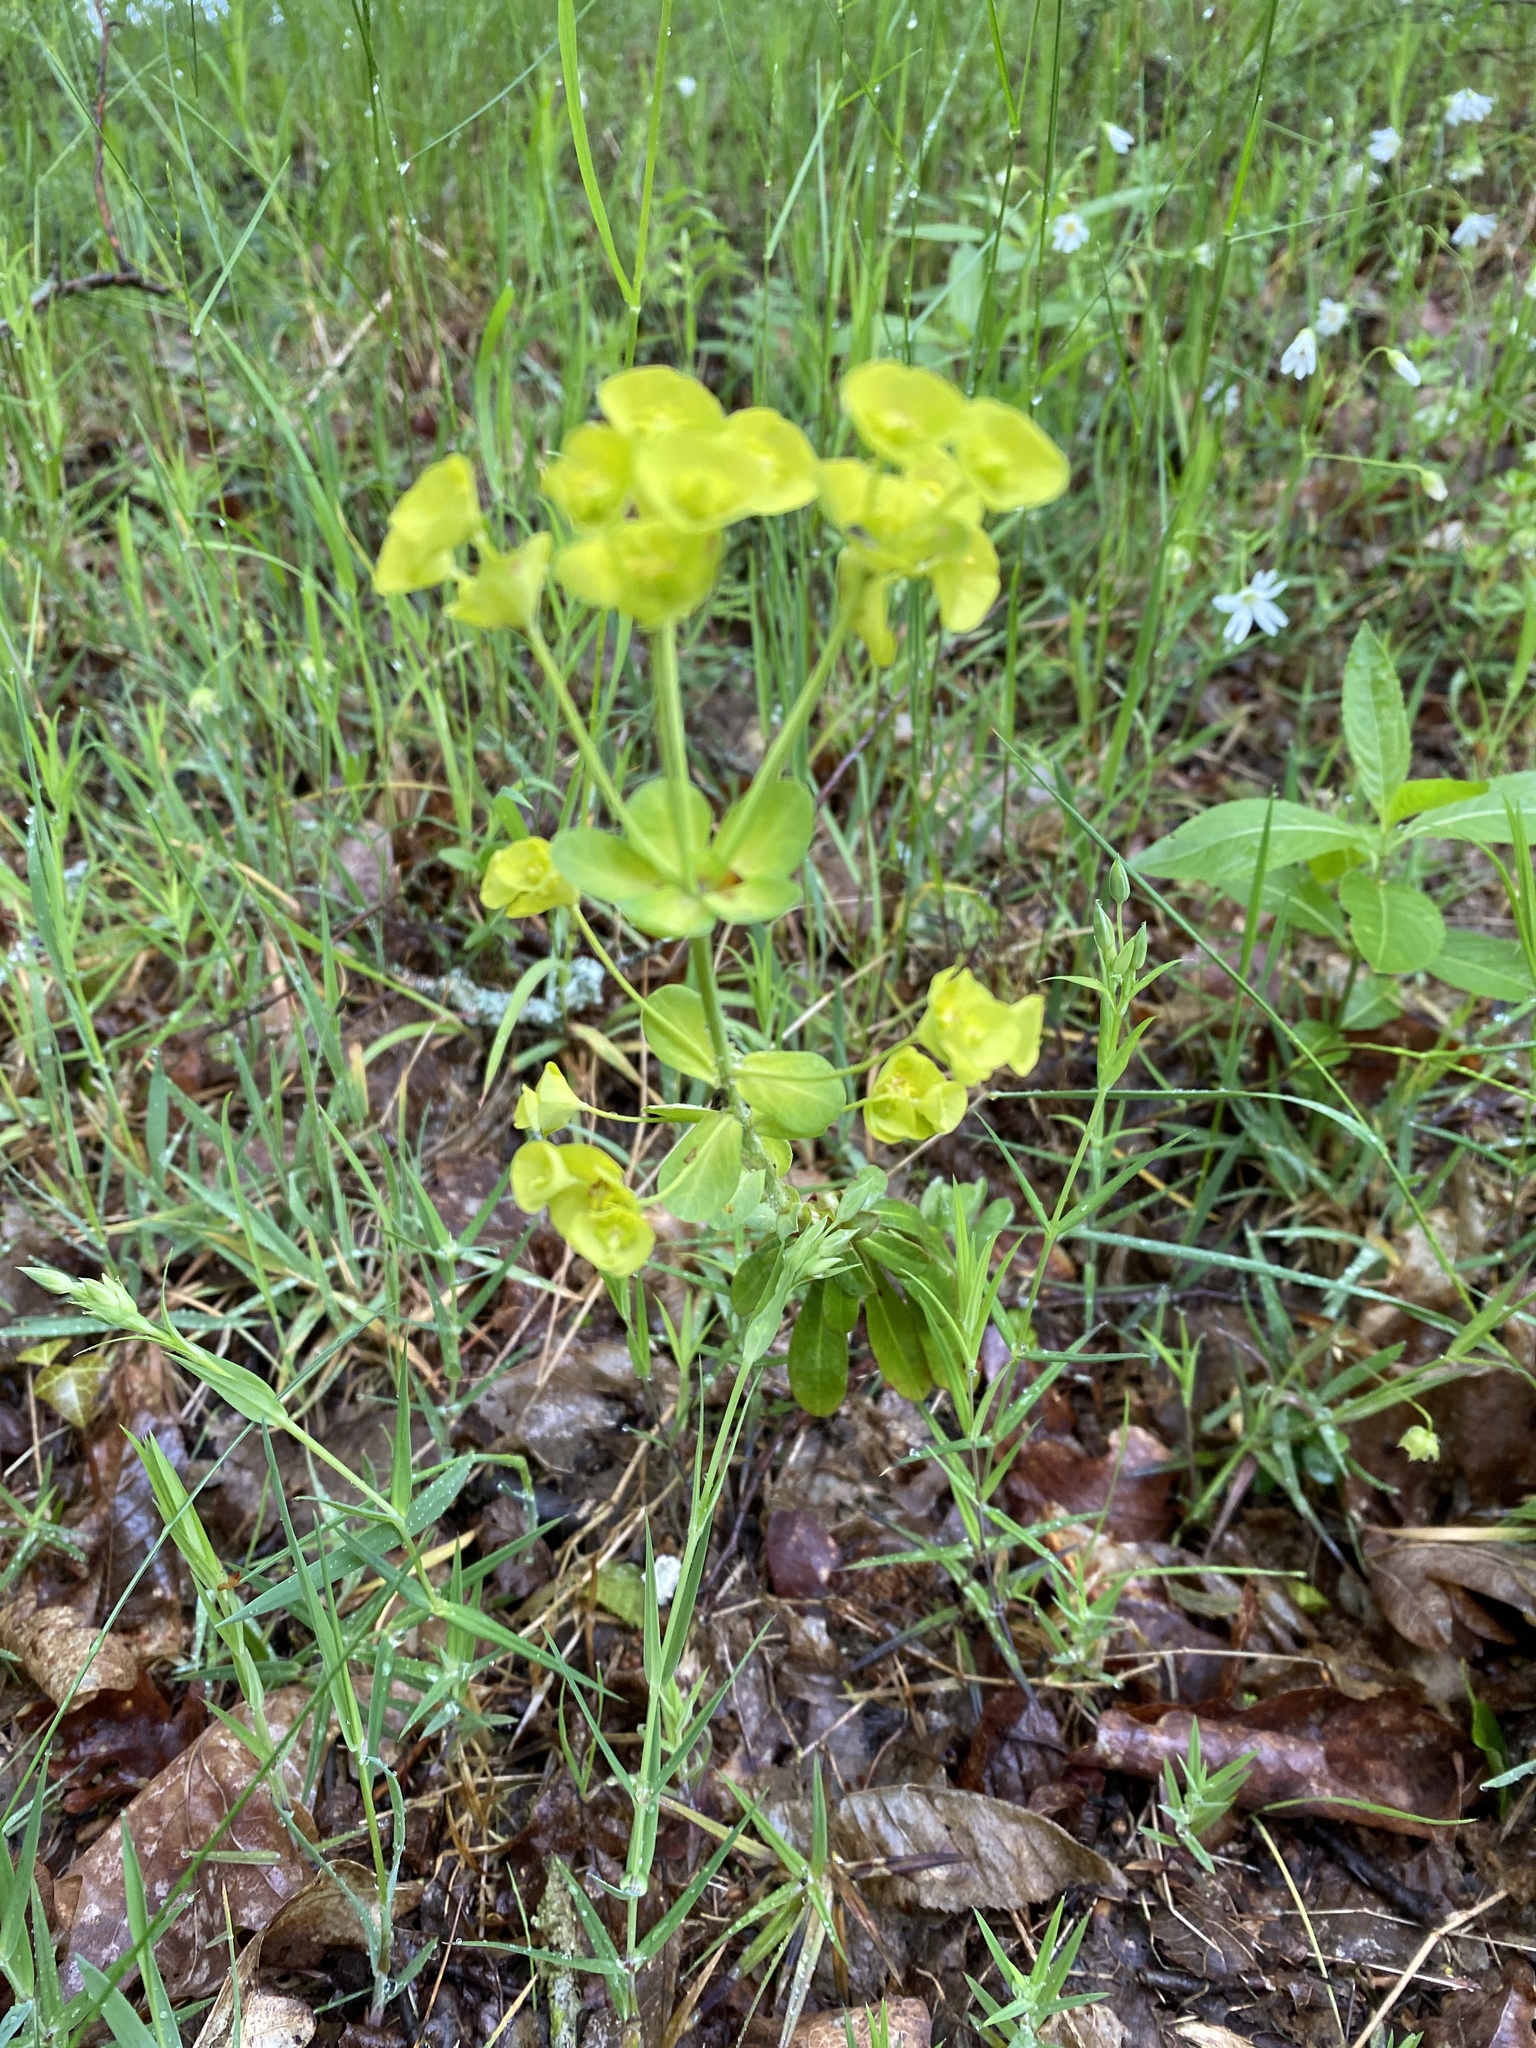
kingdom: Plantae
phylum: Tracheophyta
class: Magnoliopsida
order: Malpighiales
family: Euphorbiaceae
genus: Euphorbia
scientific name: Euphorbia amygdaloides
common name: Wood spurge
